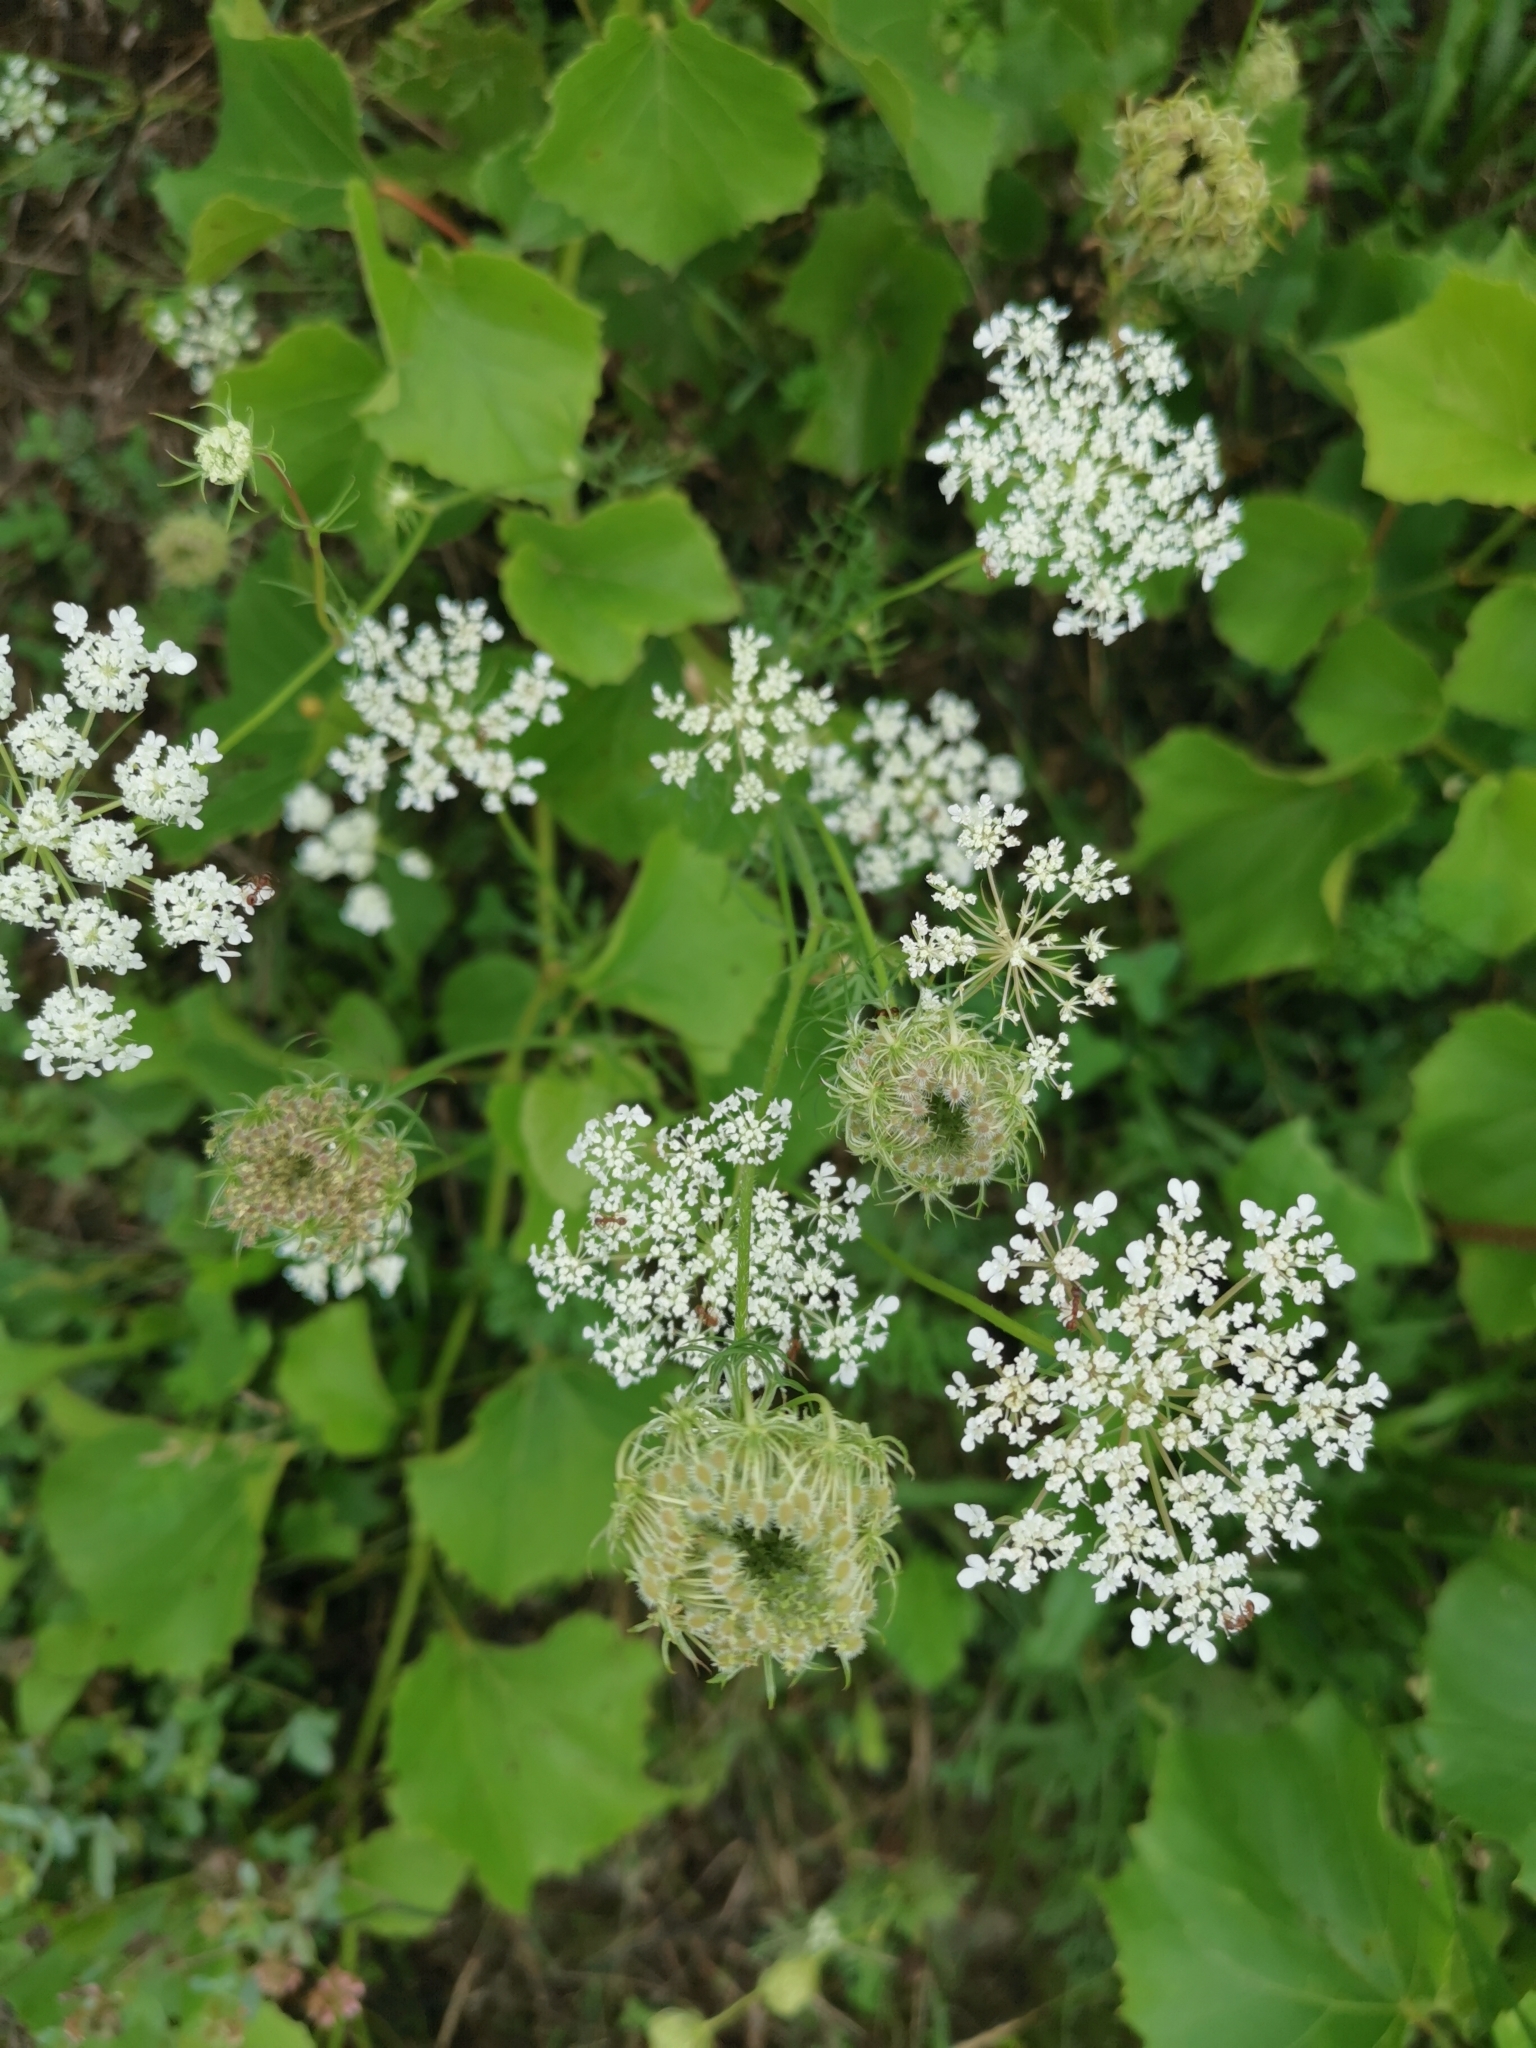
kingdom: Plantae
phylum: Tracheophyta
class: Magnoliopsida
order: Apiales
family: Apiaceae
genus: Daucus
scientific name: Daucus carota
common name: Wild carrot
